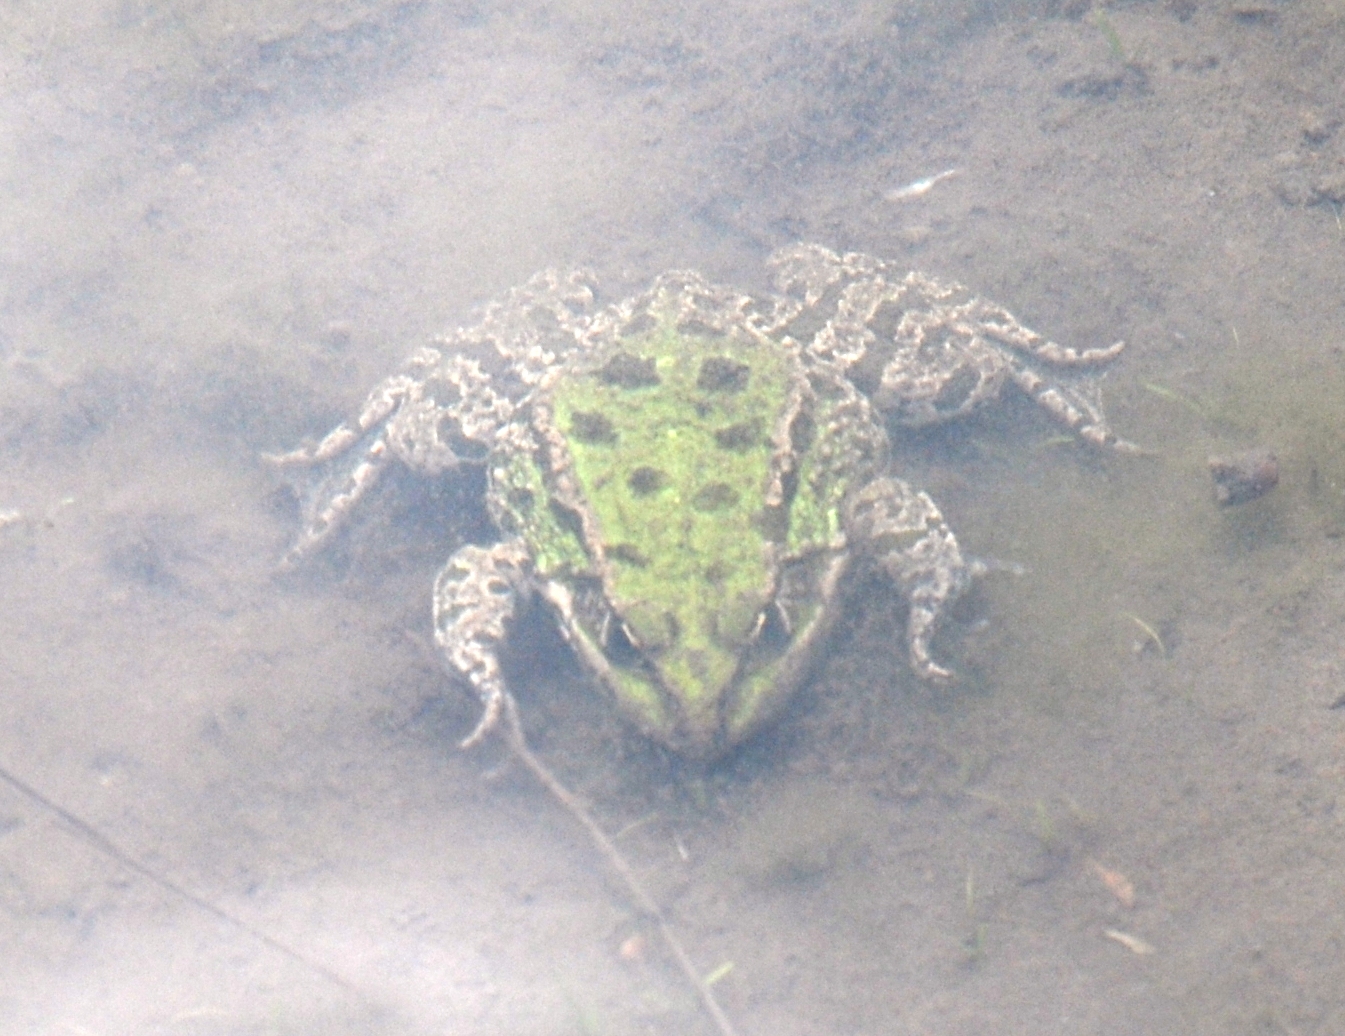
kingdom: Animalia
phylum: Chordata
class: Amphibia
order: Anura
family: Ranidae
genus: Pelophylax
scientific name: Pelophylax ridibundus
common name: Marsh frog
